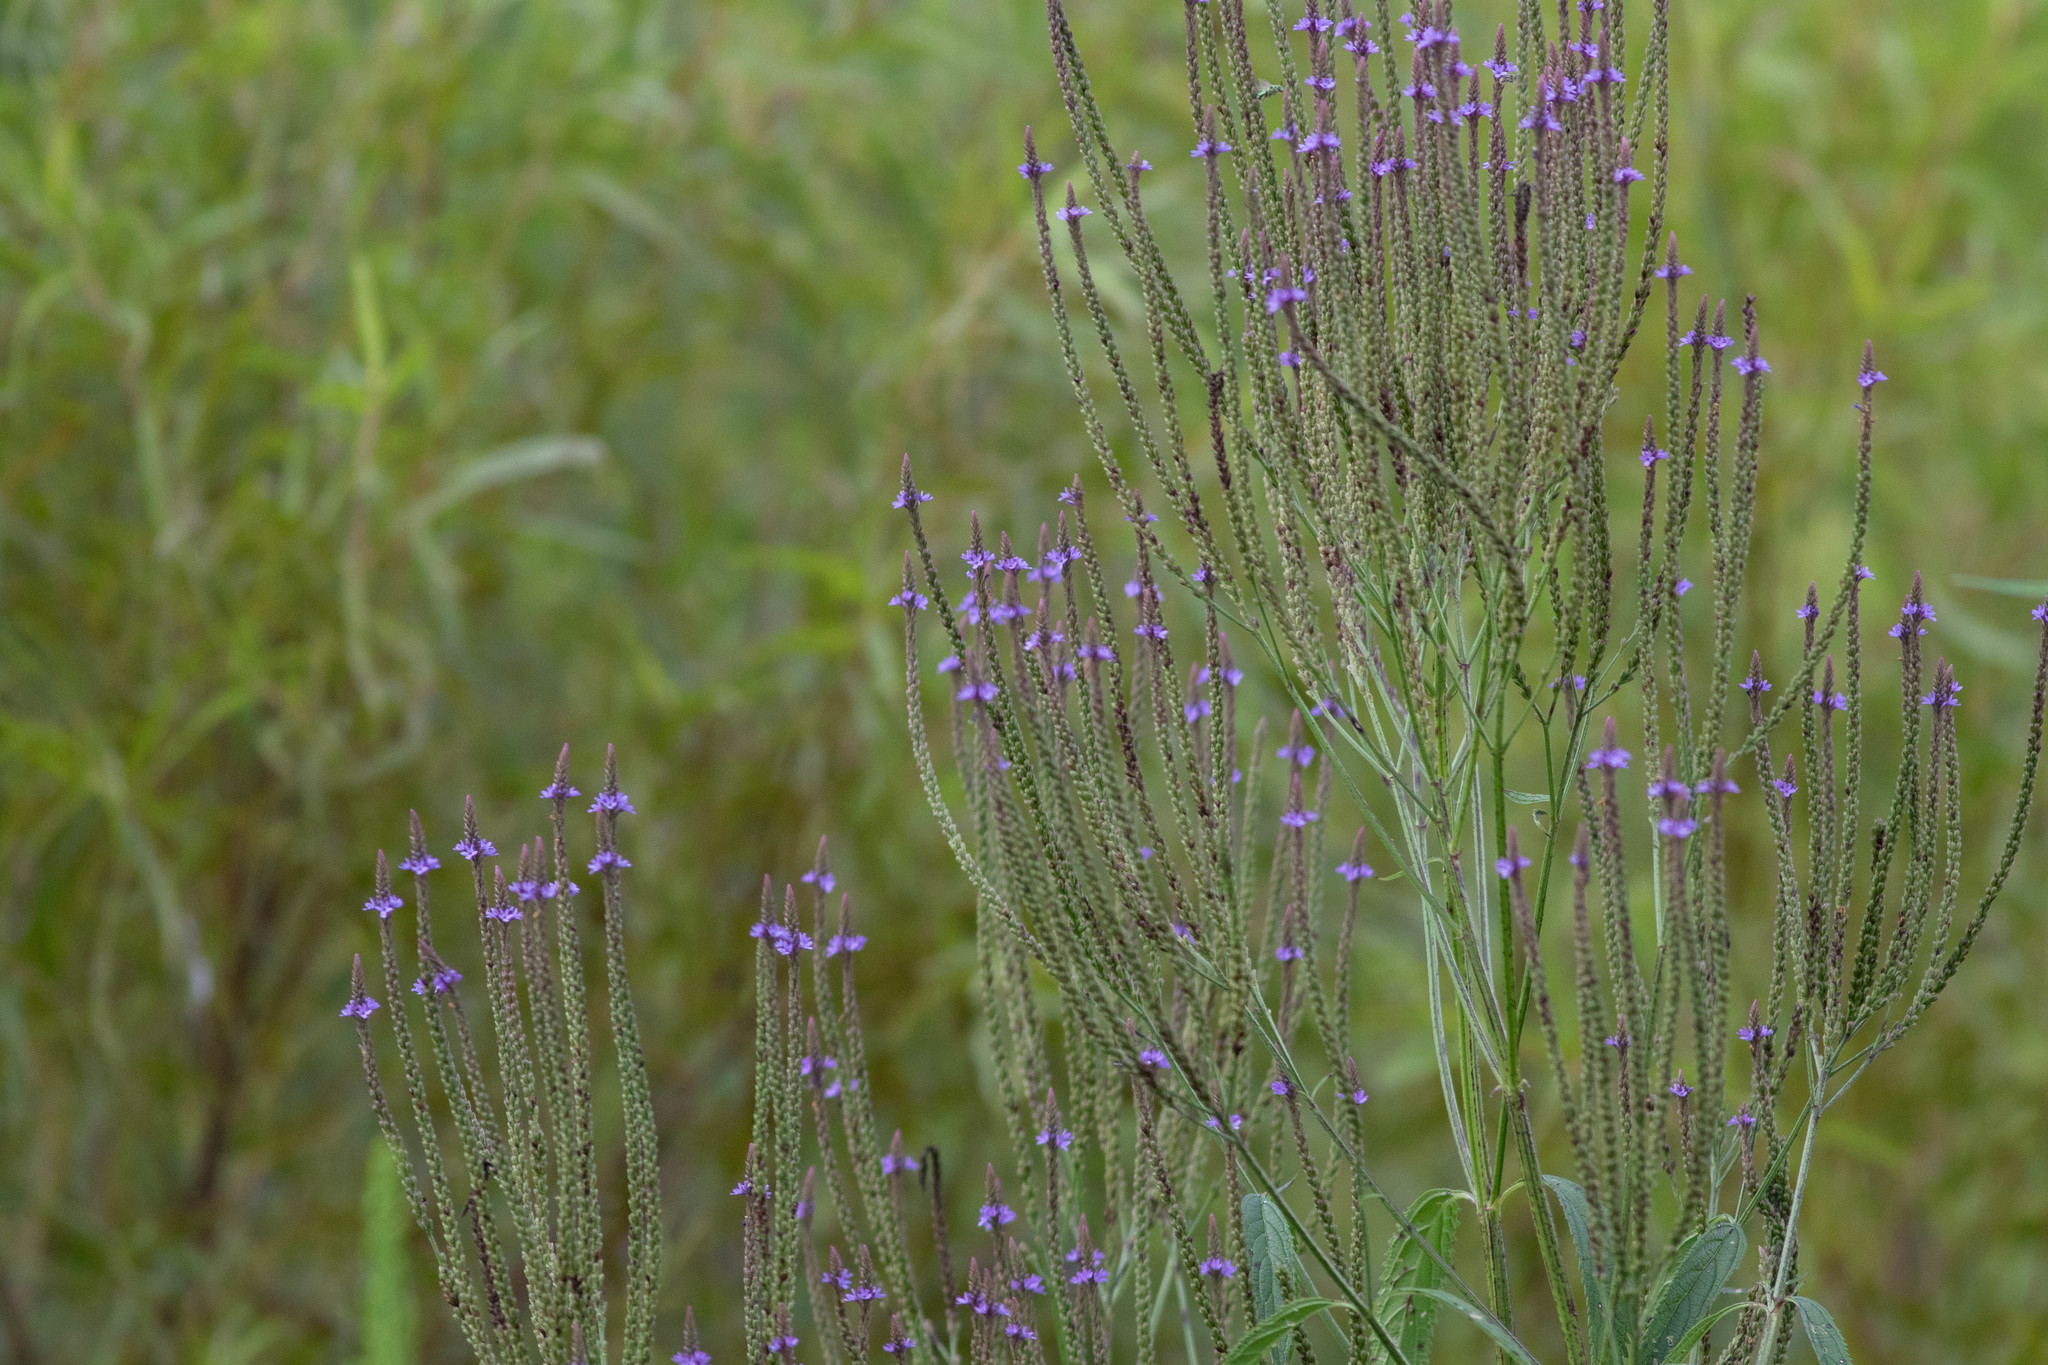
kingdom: Plantae
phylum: Tracheophyta
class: Magnoliopsida
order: Lamiales
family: Verbenaceae
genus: Verbena
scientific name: Verbena hastata
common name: American blue vervain
